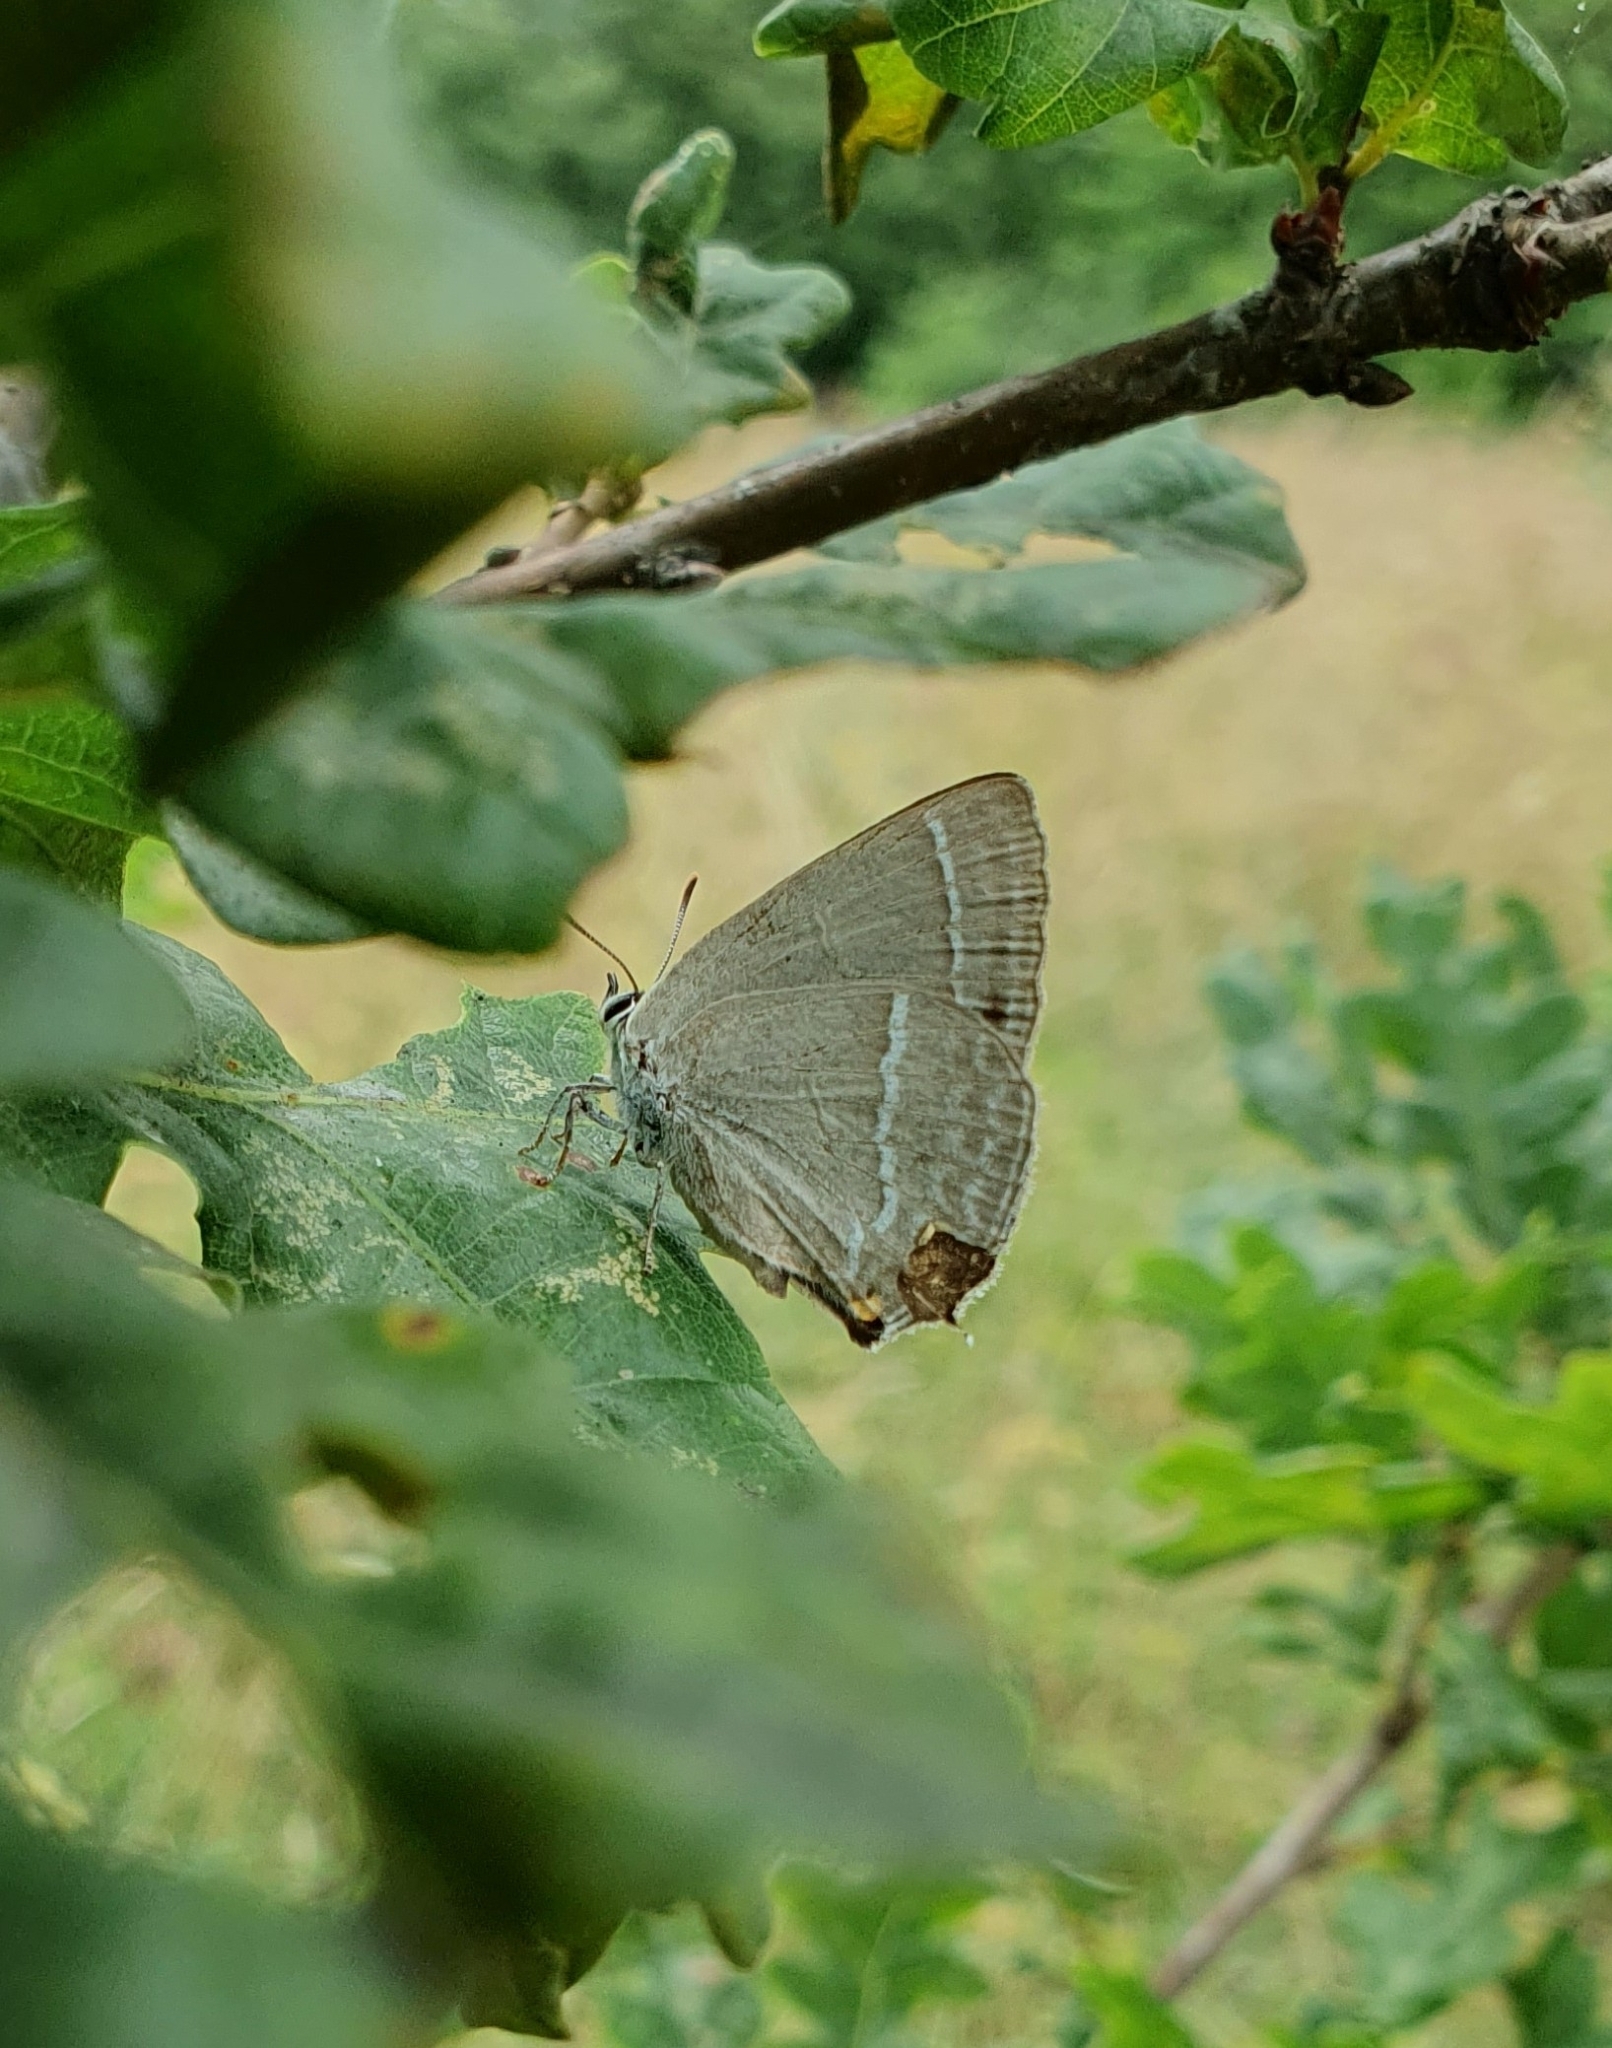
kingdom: Animalia
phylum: Arthropoda
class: Insecta
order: Lepidoptera
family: Lycaenidae
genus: Quercusia
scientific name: Quercusia quercus
